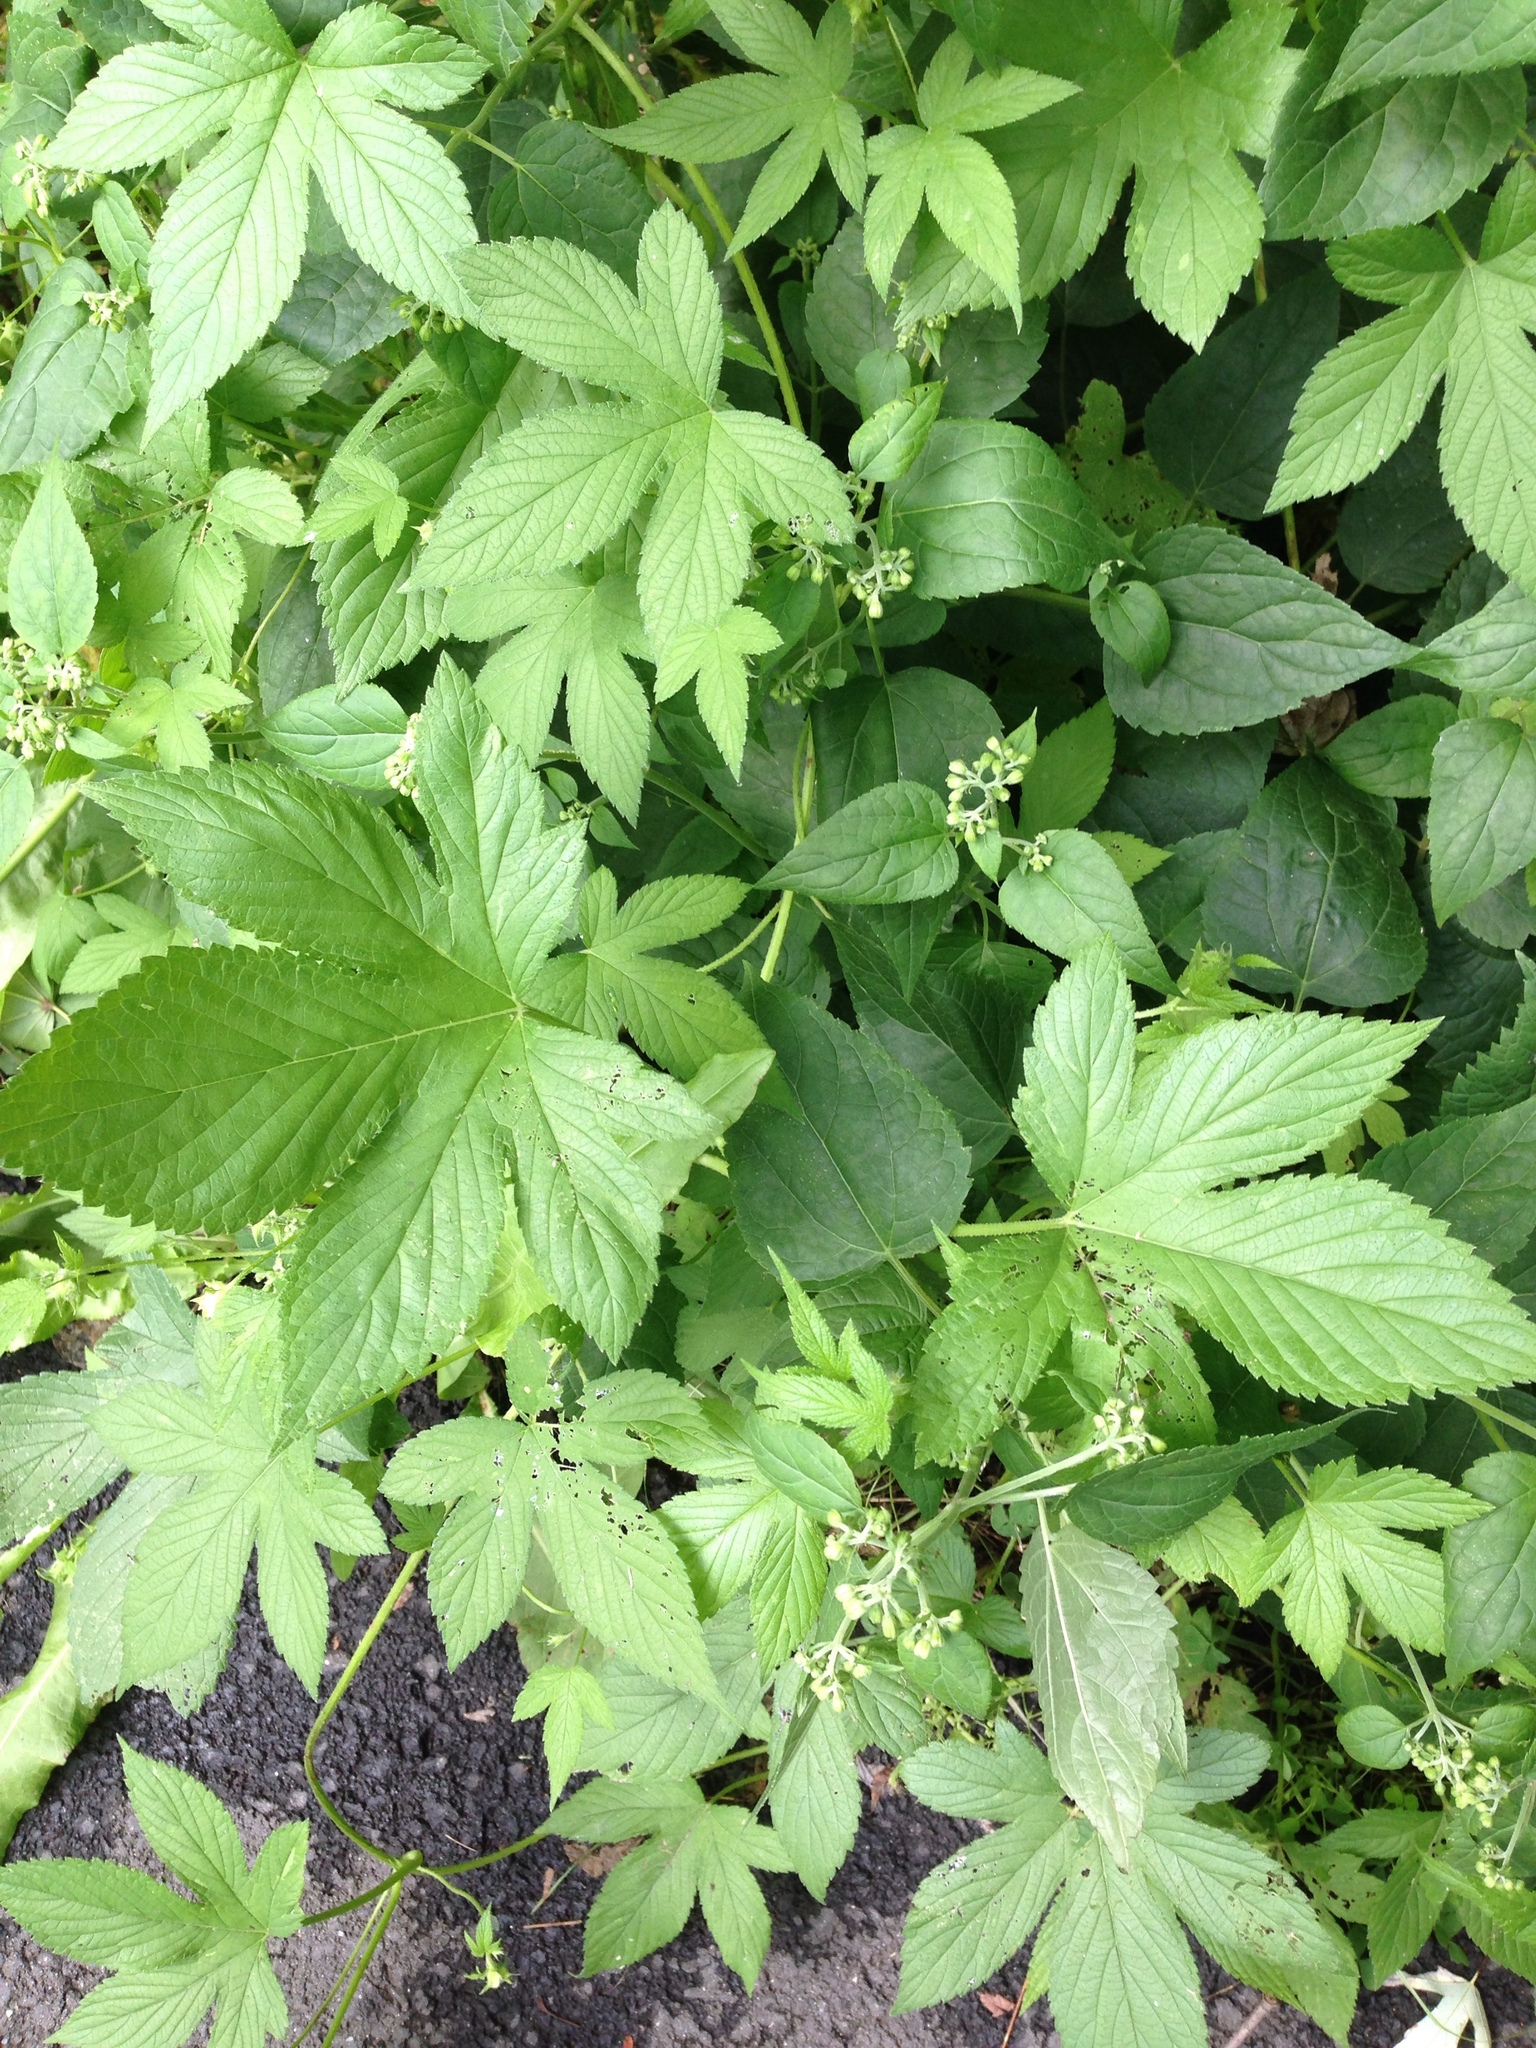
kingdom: Plantae
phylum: Tracheophyta
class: Magnoliopsida
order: Rosales
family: Cannabaceae
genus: Humulus
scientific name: Humulus scandens
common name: Japanese hop
